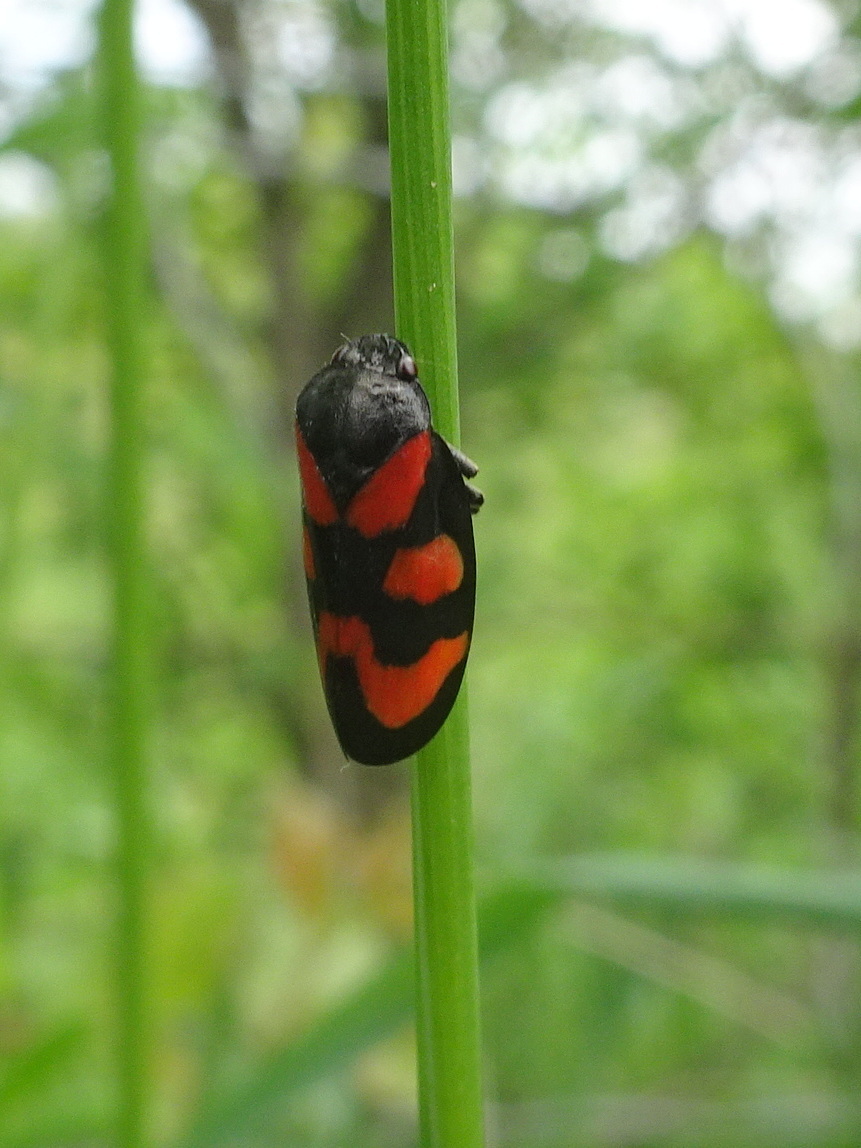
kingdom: Animalia
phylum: Arthropoda
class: Insecta
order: Hemiptera
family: Cercopidae
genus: Cercopis
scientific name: Cercopis vulnerata
